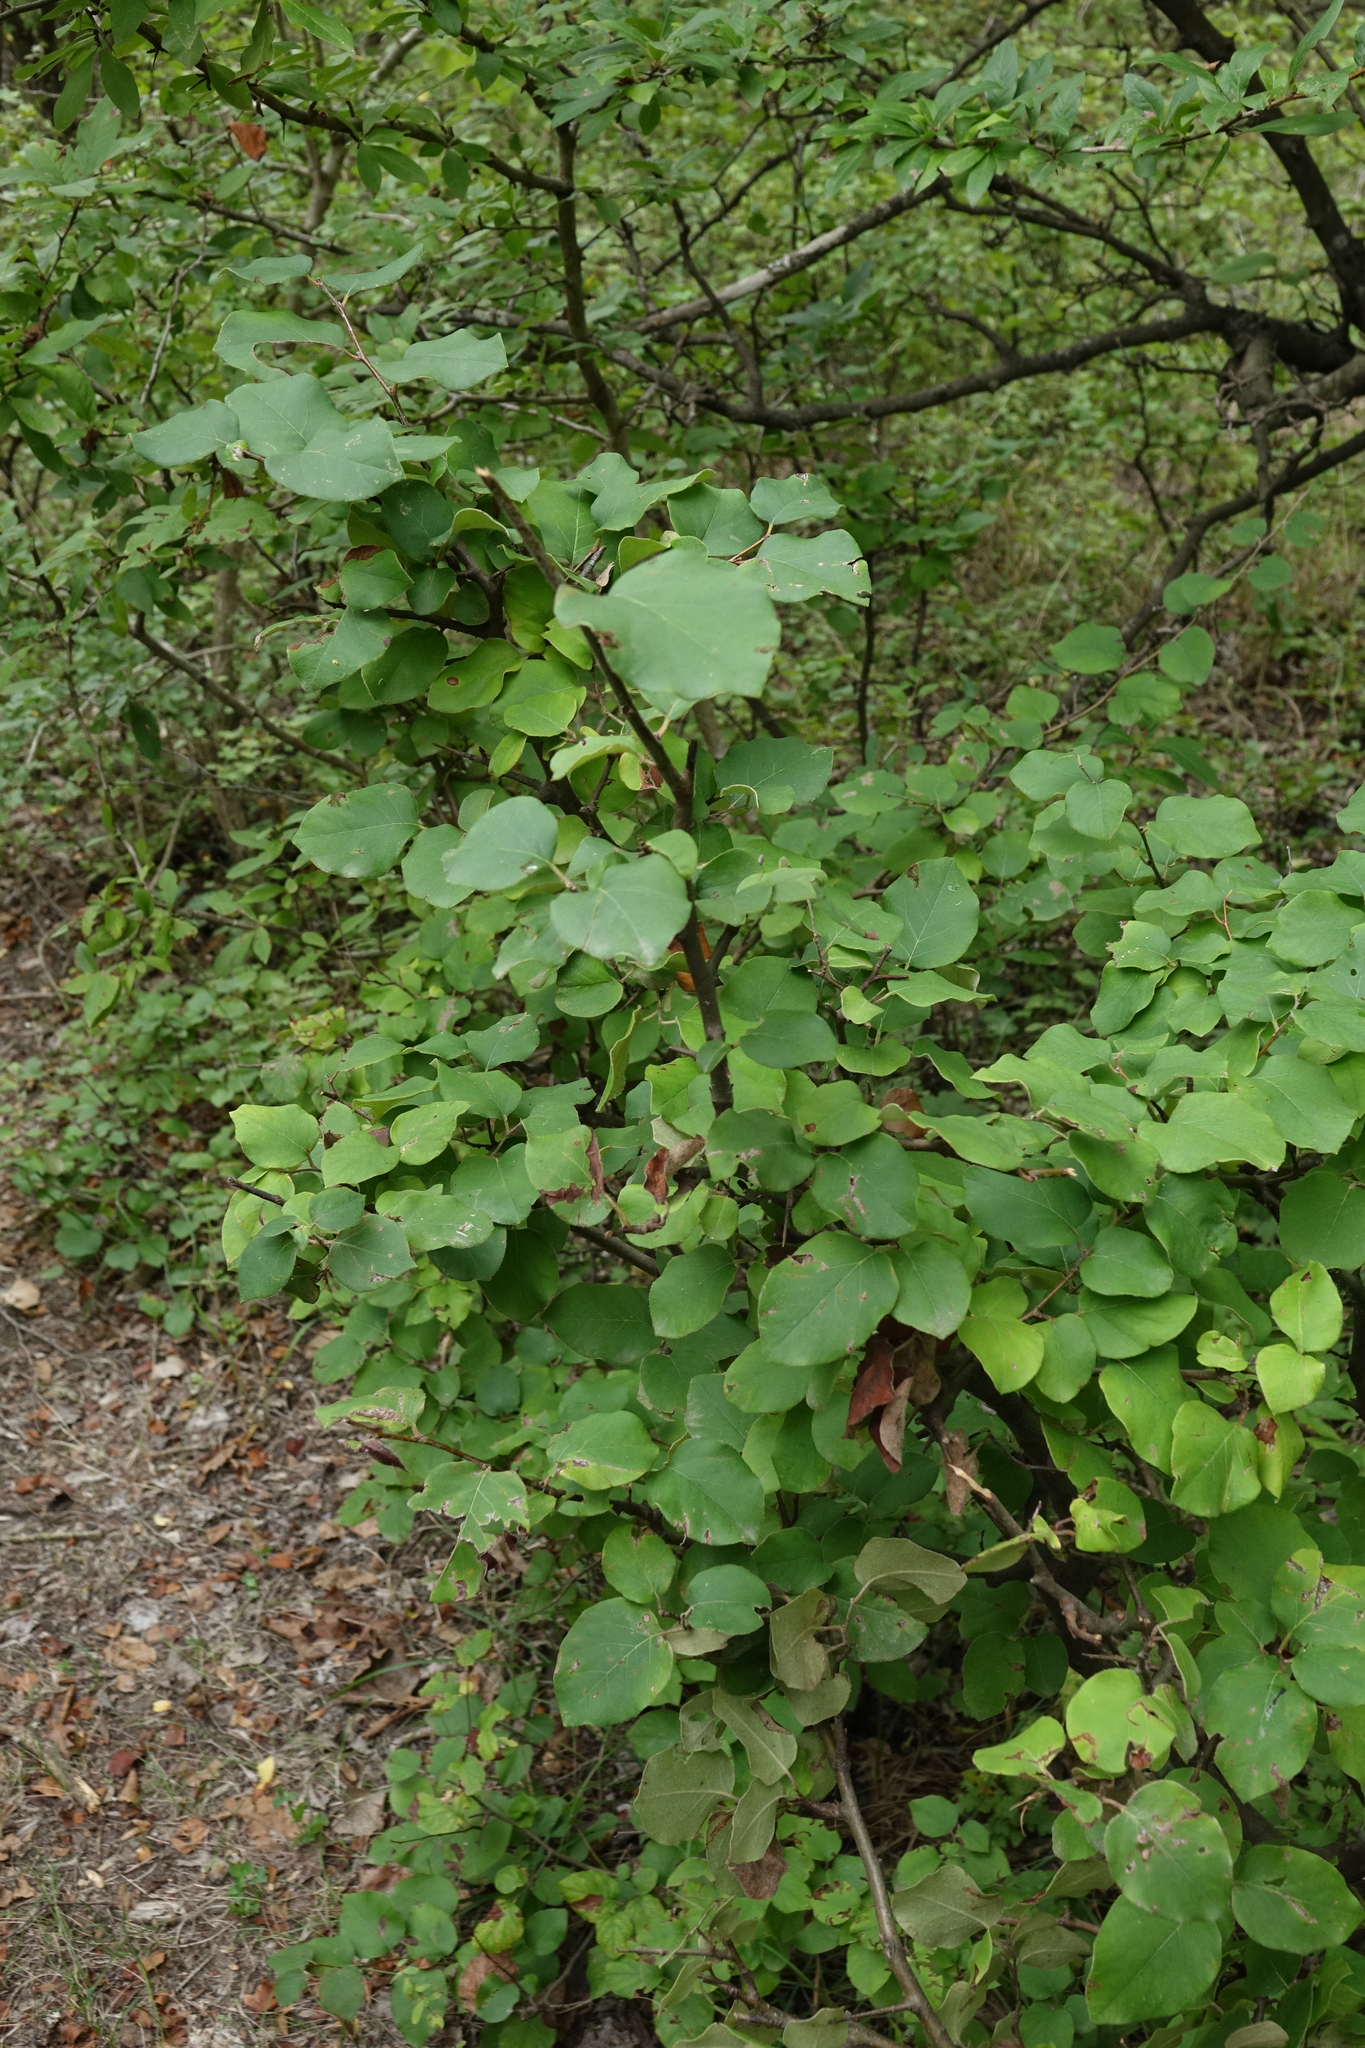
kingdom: Plantae
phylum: Tracheophyta
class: Magnoliopsida
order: Rosales
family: Rosaceae
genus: Cydonia
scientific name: Cydonia oblonga
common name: Quince
